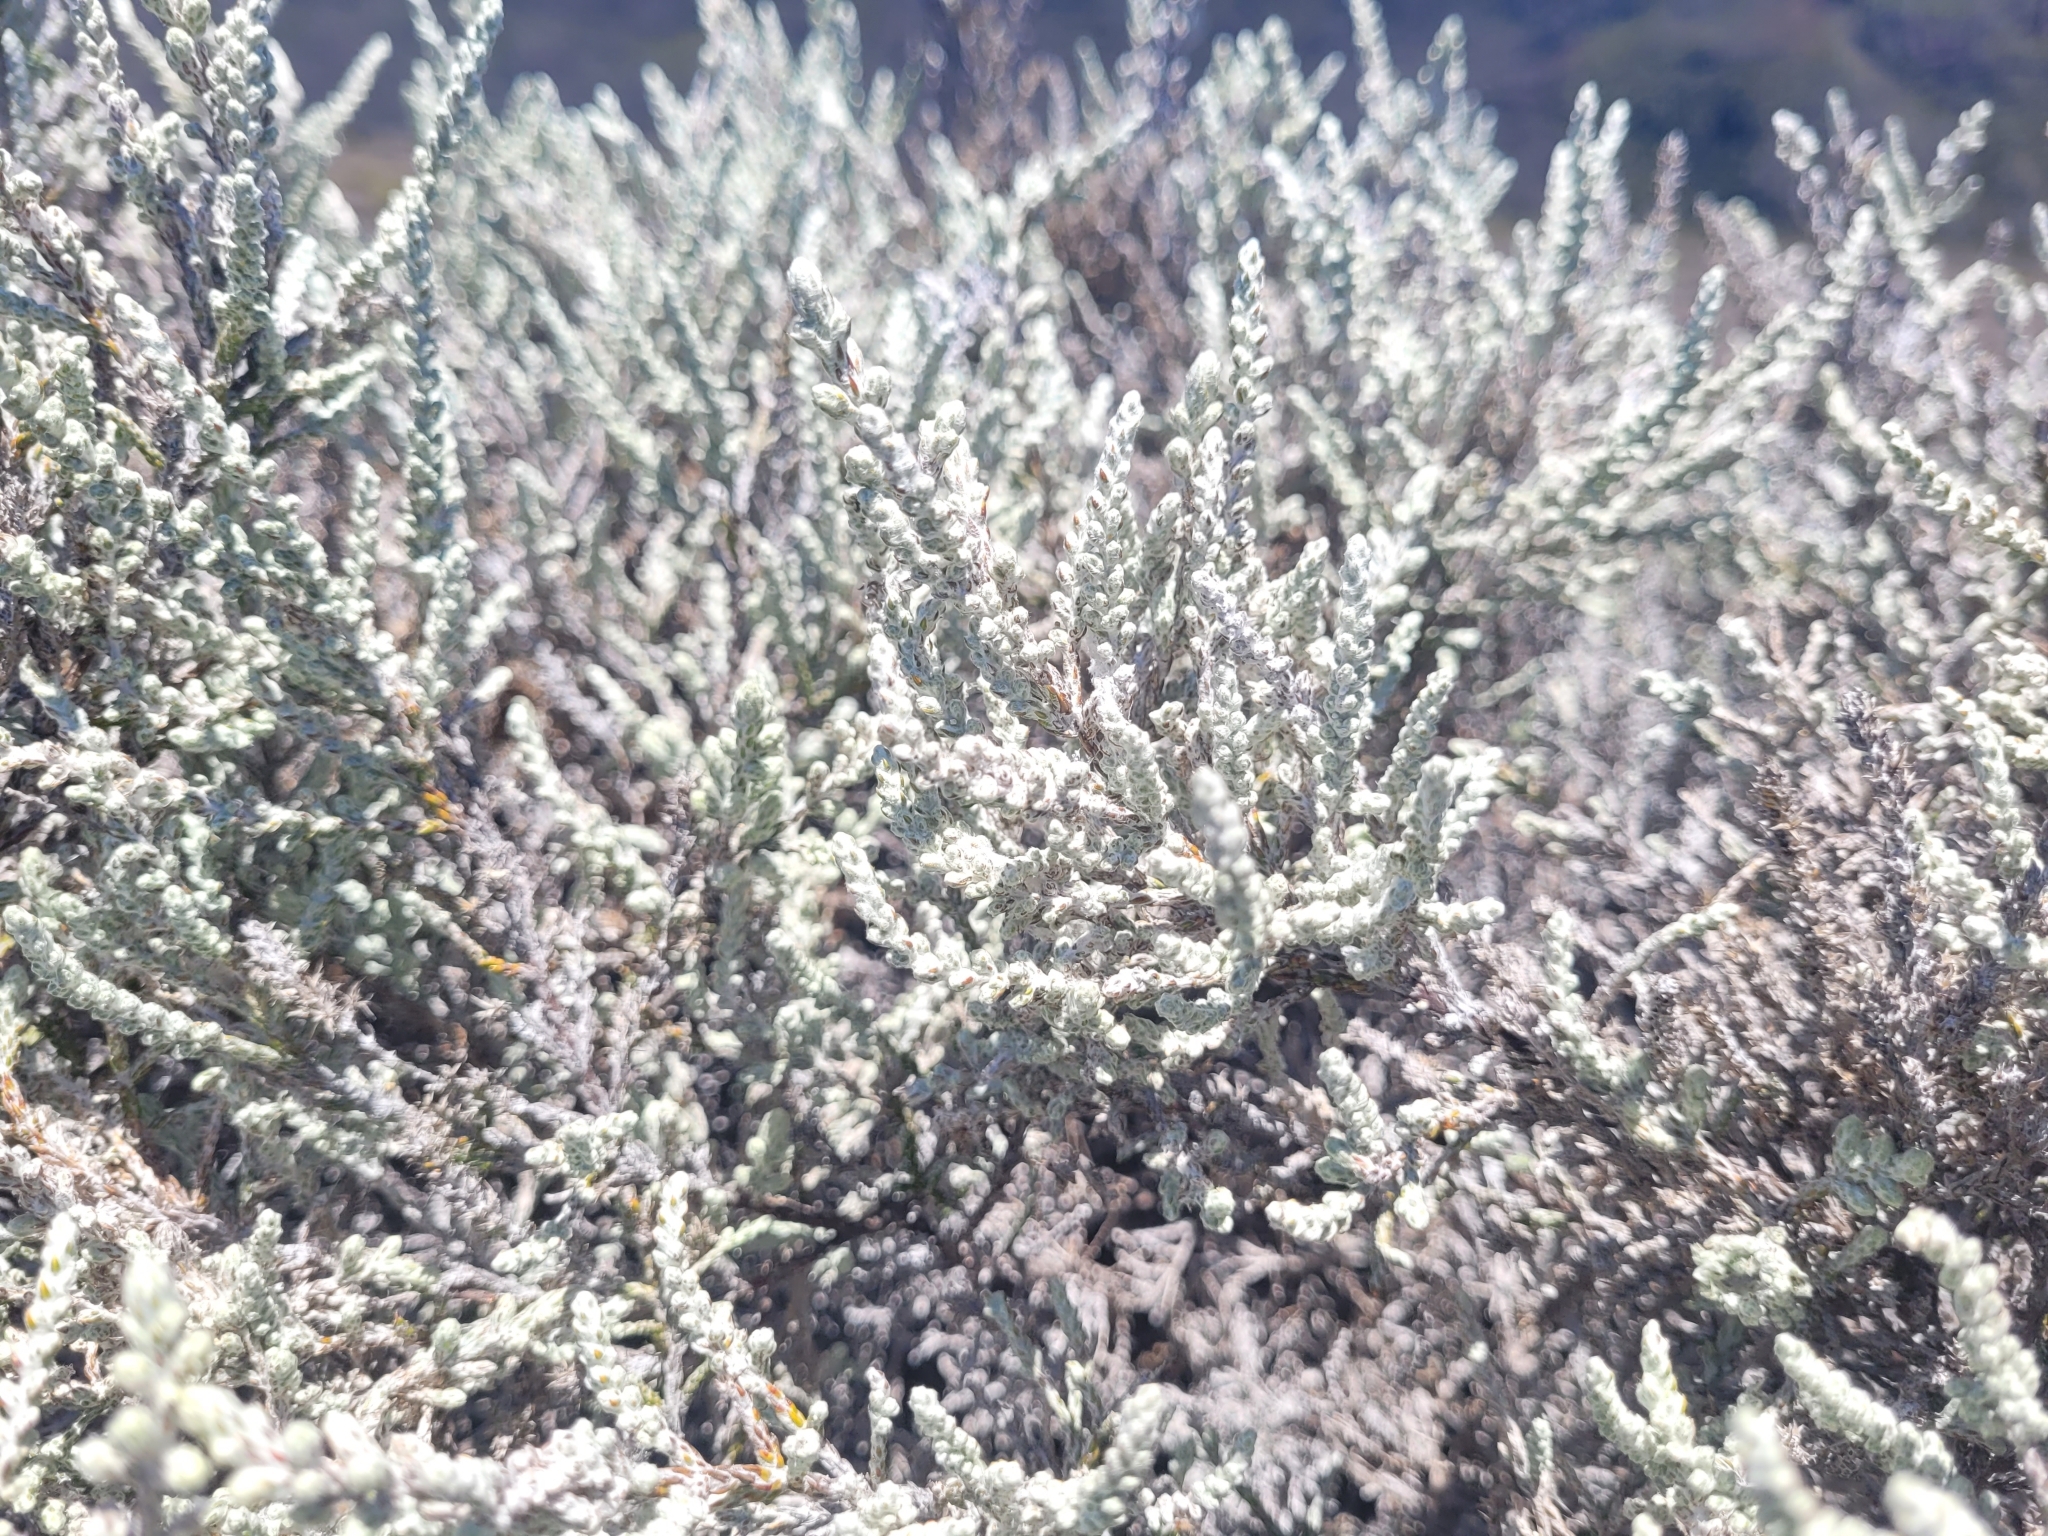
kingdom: Plantae
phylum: Tracheophyta
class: Magnoliopsida
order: Asterales
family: Asteraceae
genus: Seriphium
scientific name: Seriphium passerinoides
